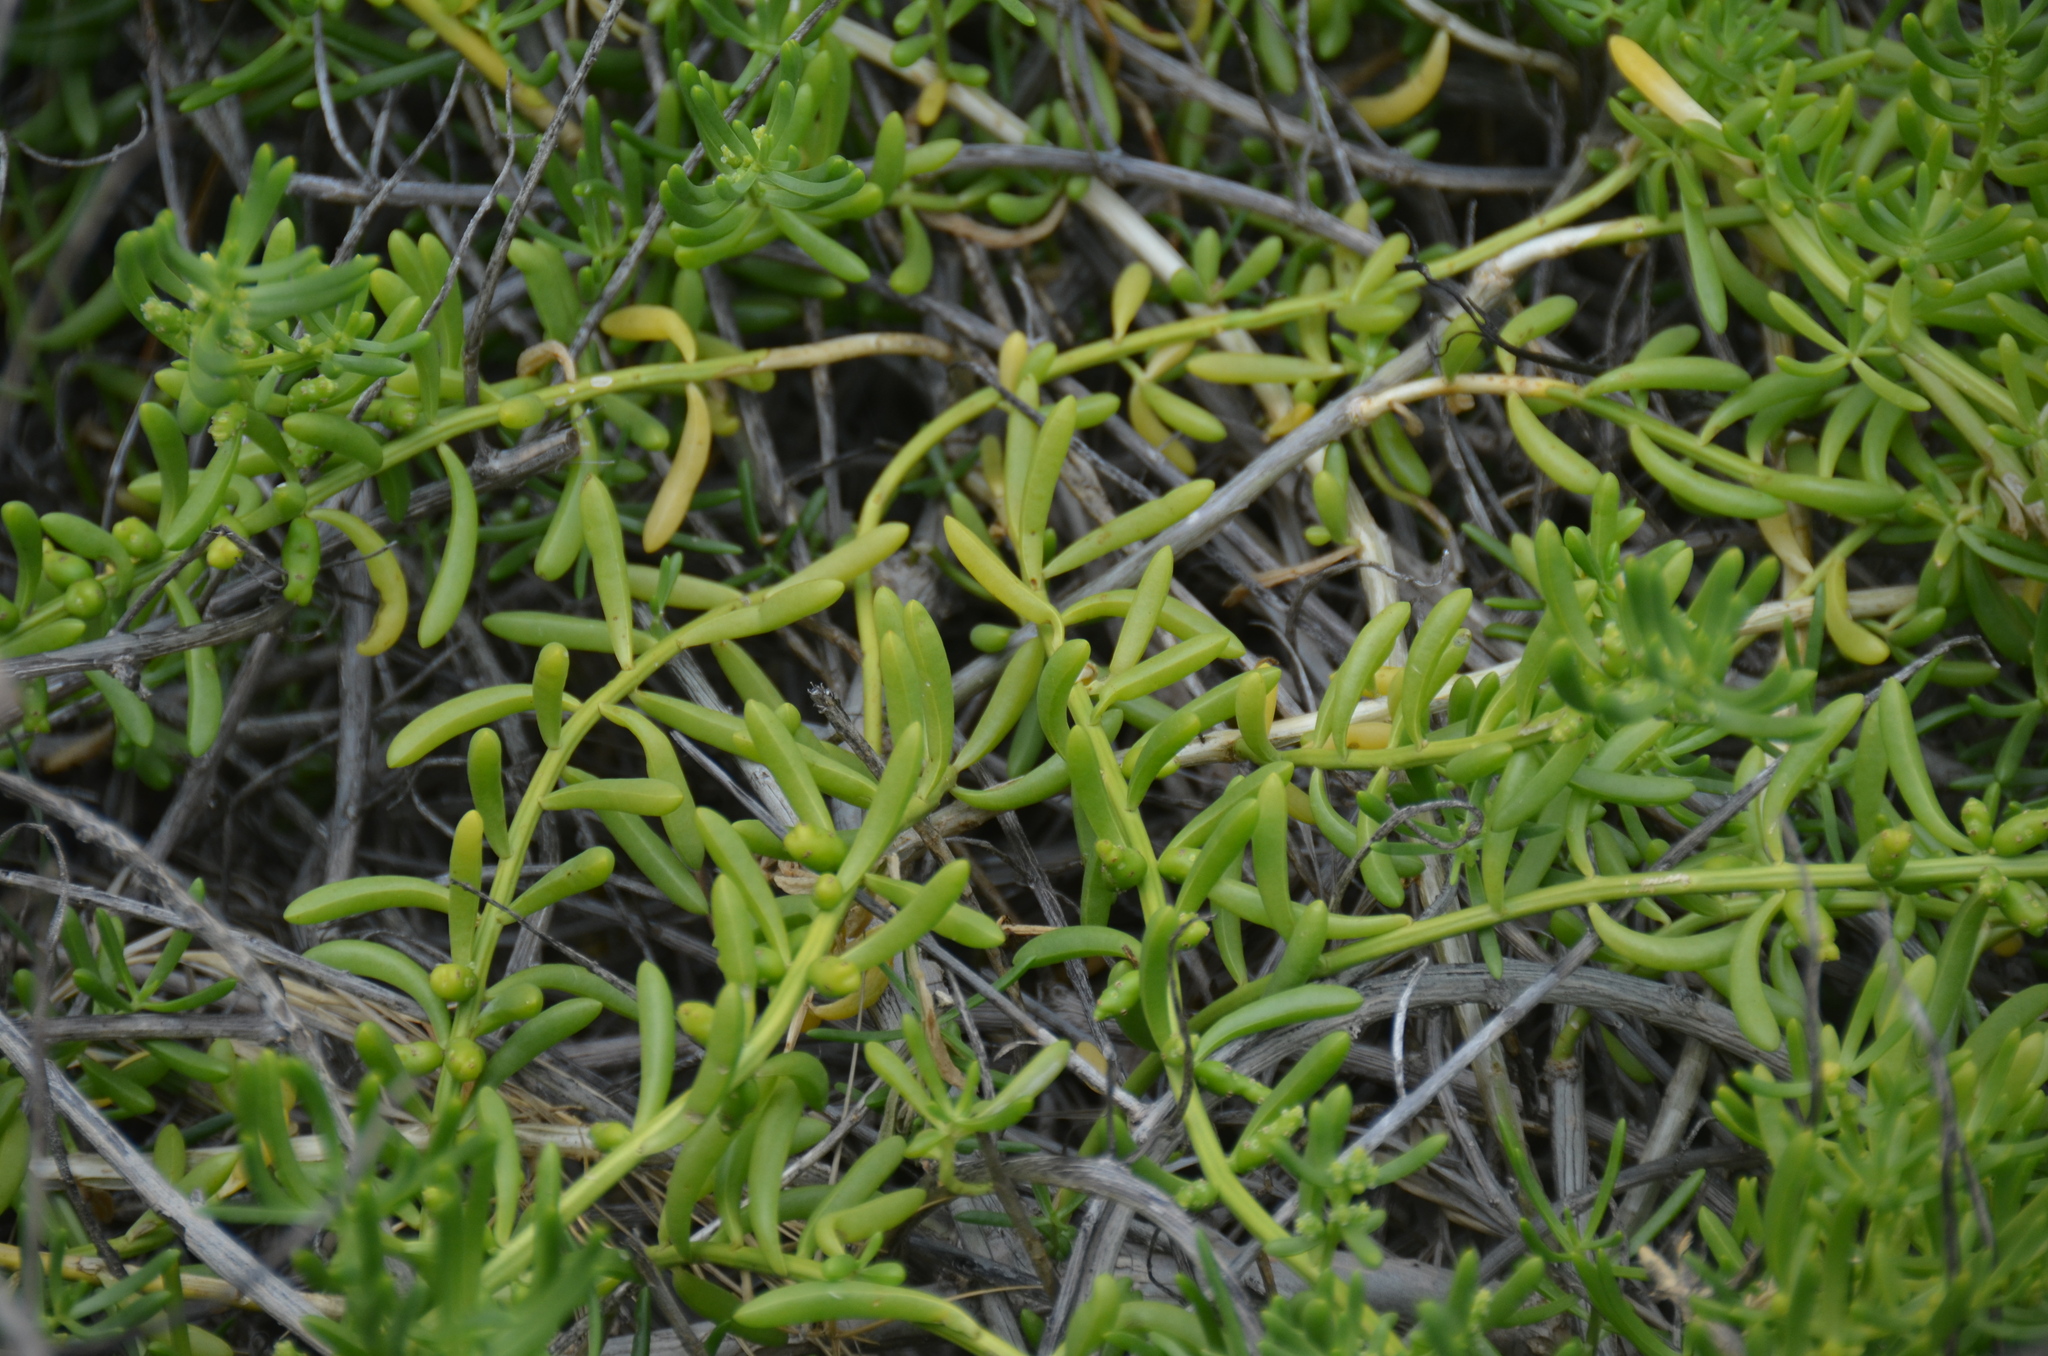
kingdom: Plantae
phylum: Tracheophyta
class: Magnoliopsida
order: Brassicales
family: Bataceae
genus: Batis
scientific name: Batis maritima
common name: Turtleweed
